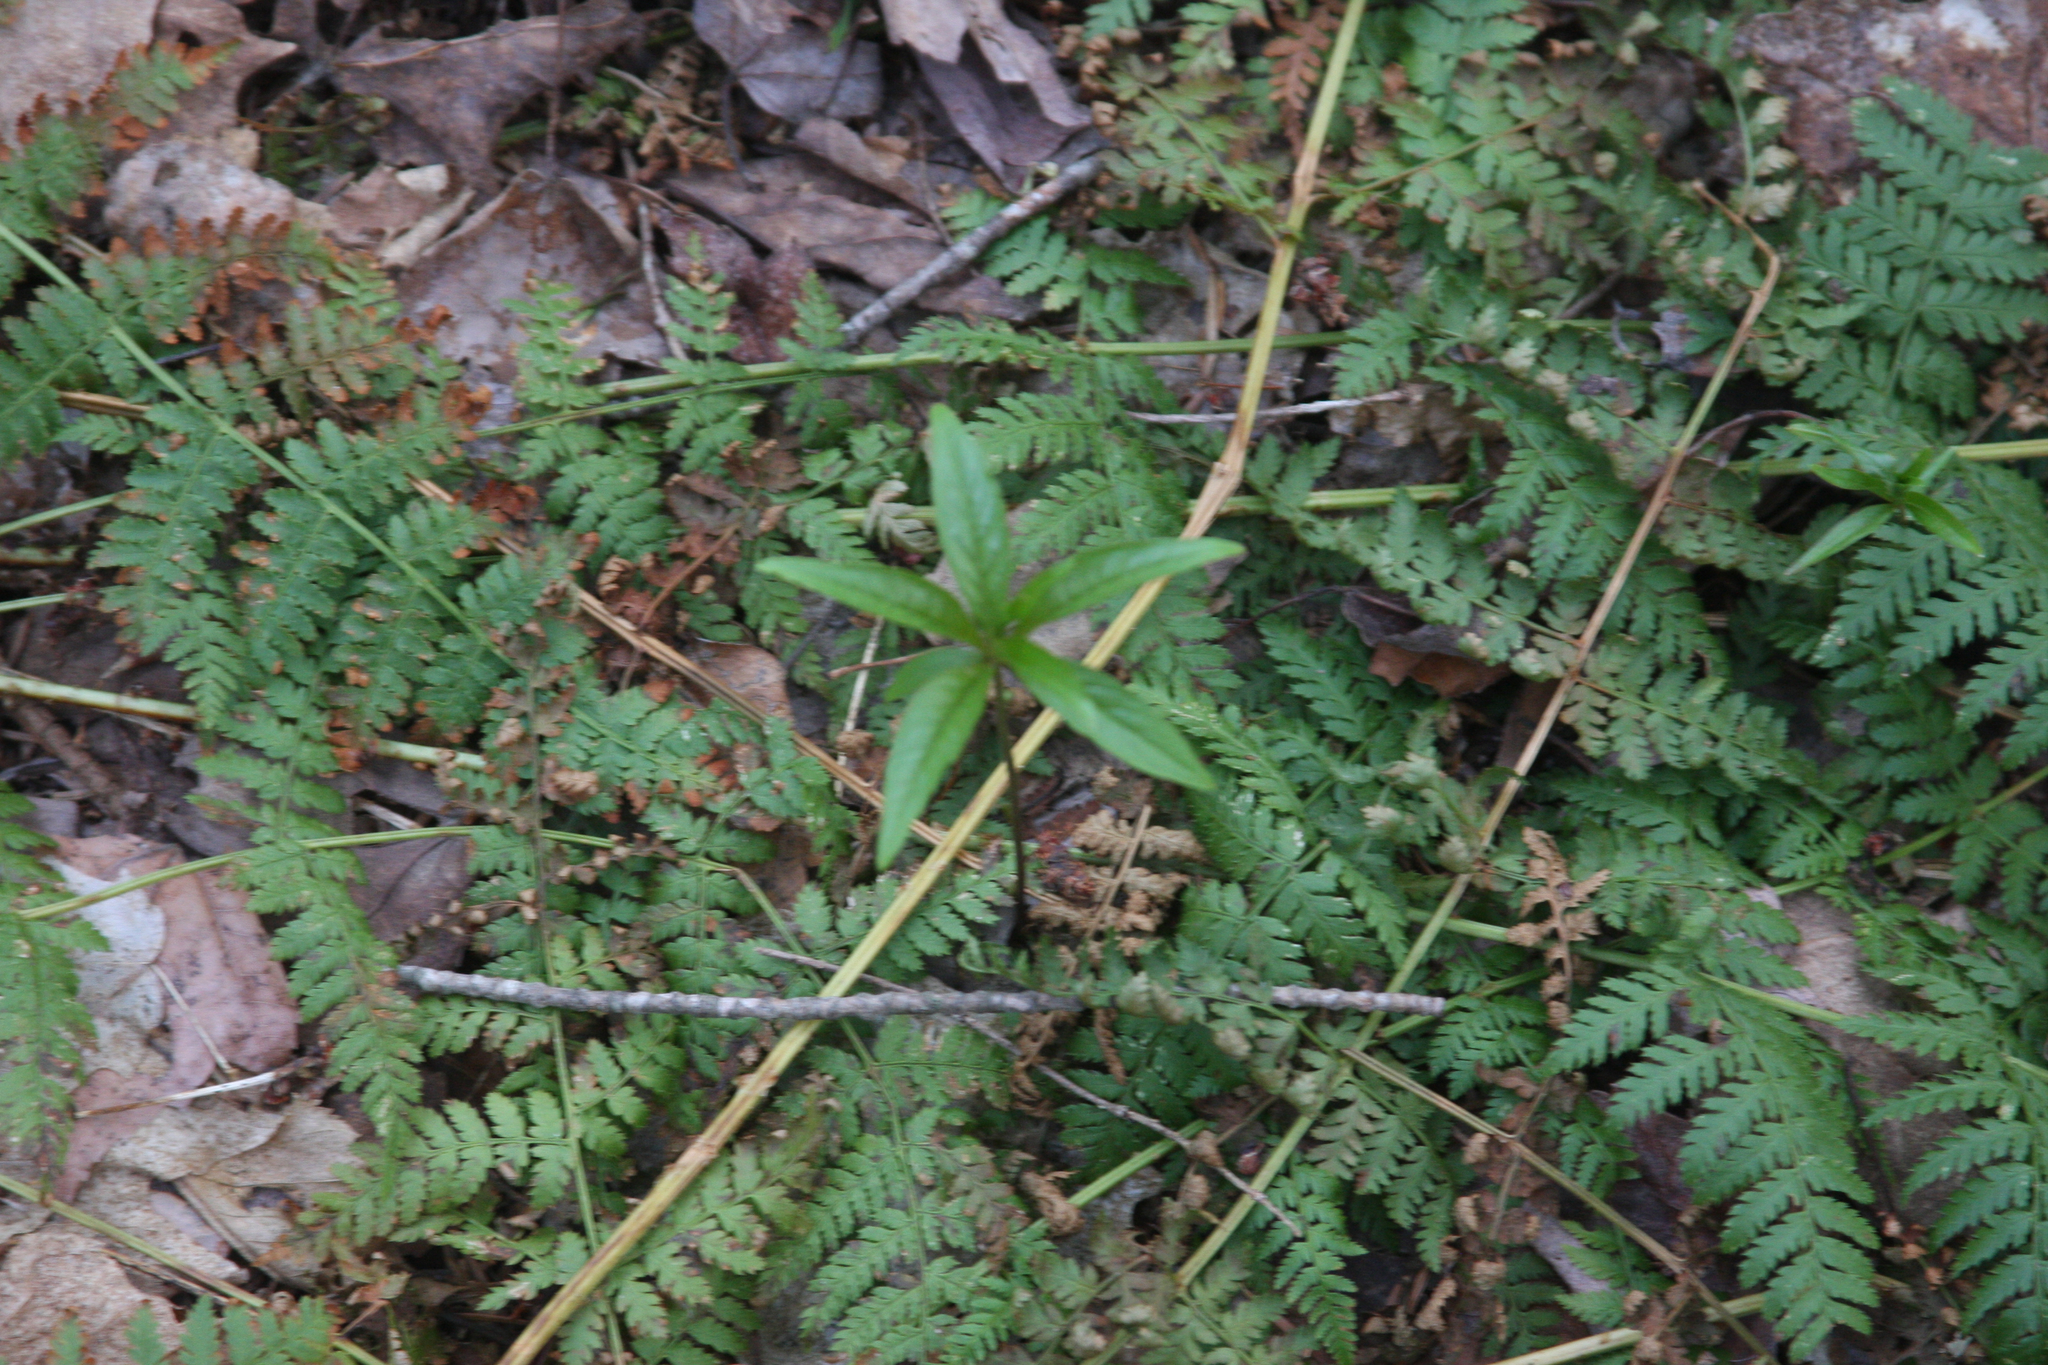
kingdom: Plantae
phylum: Tracheophyta
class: Polypodiopsida
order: Polypodiales
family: Dryopteridaceae
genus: Dryopteris
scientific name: Dryopteris intermedia
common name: Evergreen wood fern
